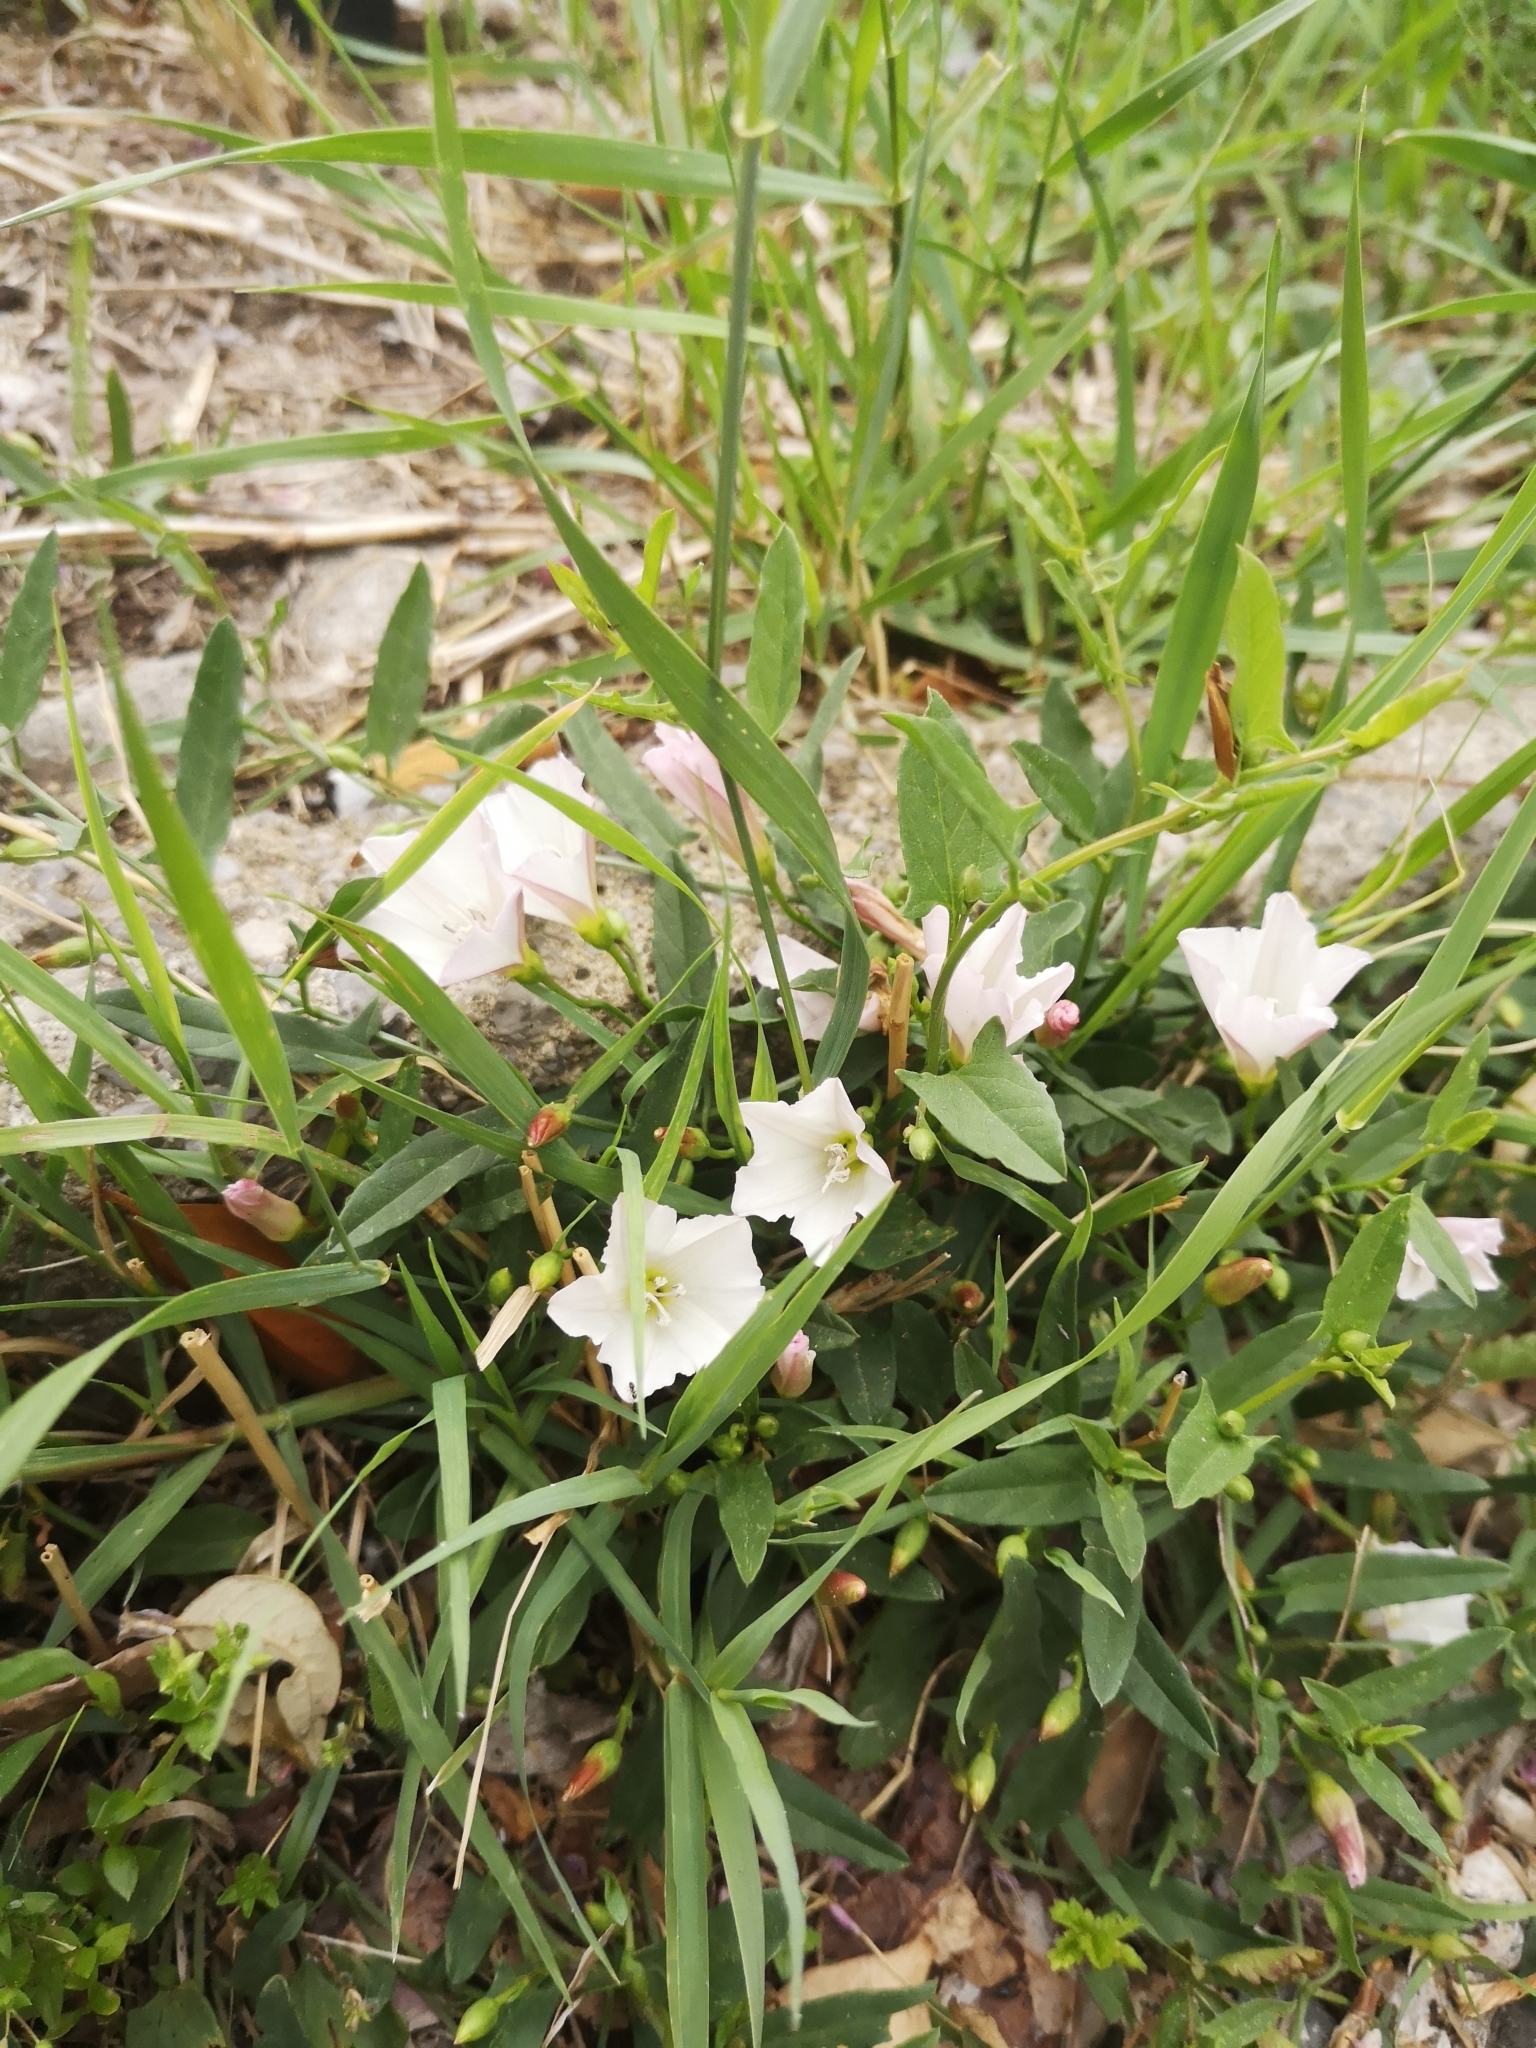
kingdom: Plantae
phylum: Tracheophyta
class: Magnoliopsida
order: Solanales
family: Convolvulaceae
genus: Convolvulus
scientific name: Convolvulus arvensis
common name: Field bindweed
